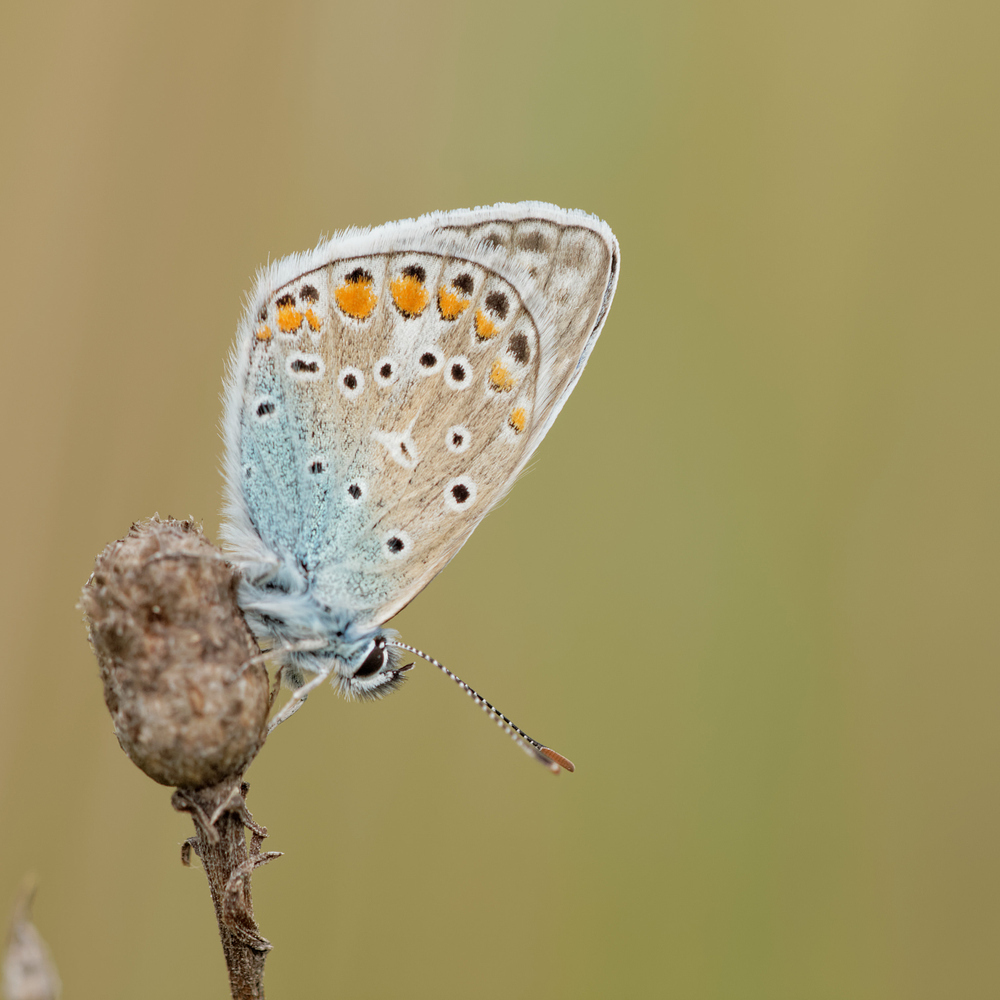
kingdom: Animalia
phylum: Arthropoda
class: Insecta
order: Lepidoptera
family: Lycaenidae
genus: Polyommatus
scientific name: Polyommatus icarus
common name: Common blue
